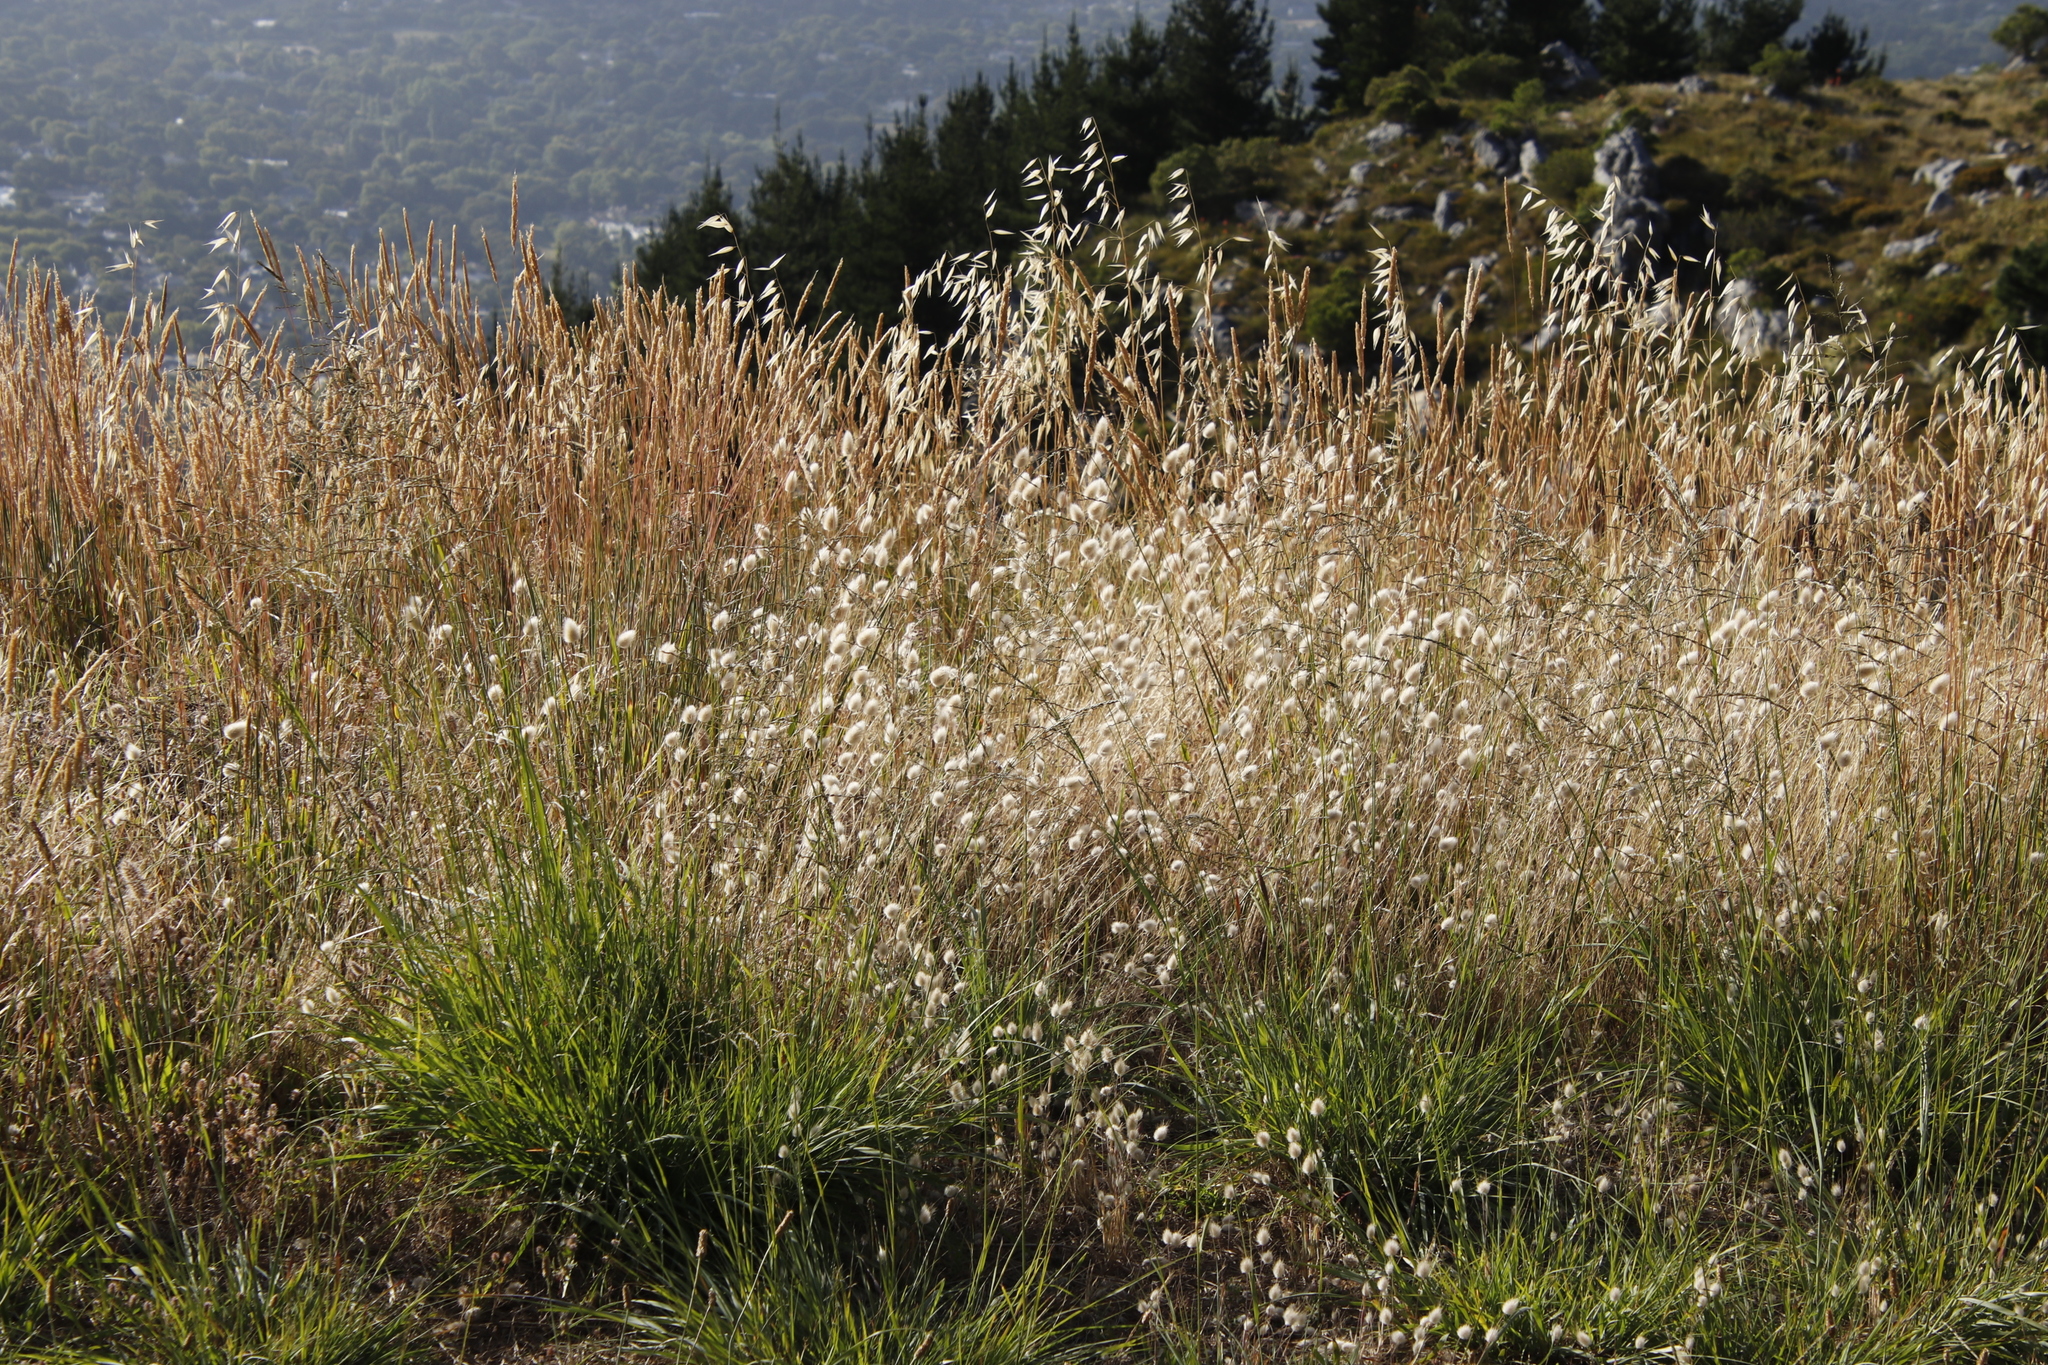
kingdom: Plantae
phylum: Tracheophyta
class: Liliopsida
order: Poales
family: Poaceae
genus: Lagurus
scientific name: Lagurus ovatus
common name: Hare's-tail
